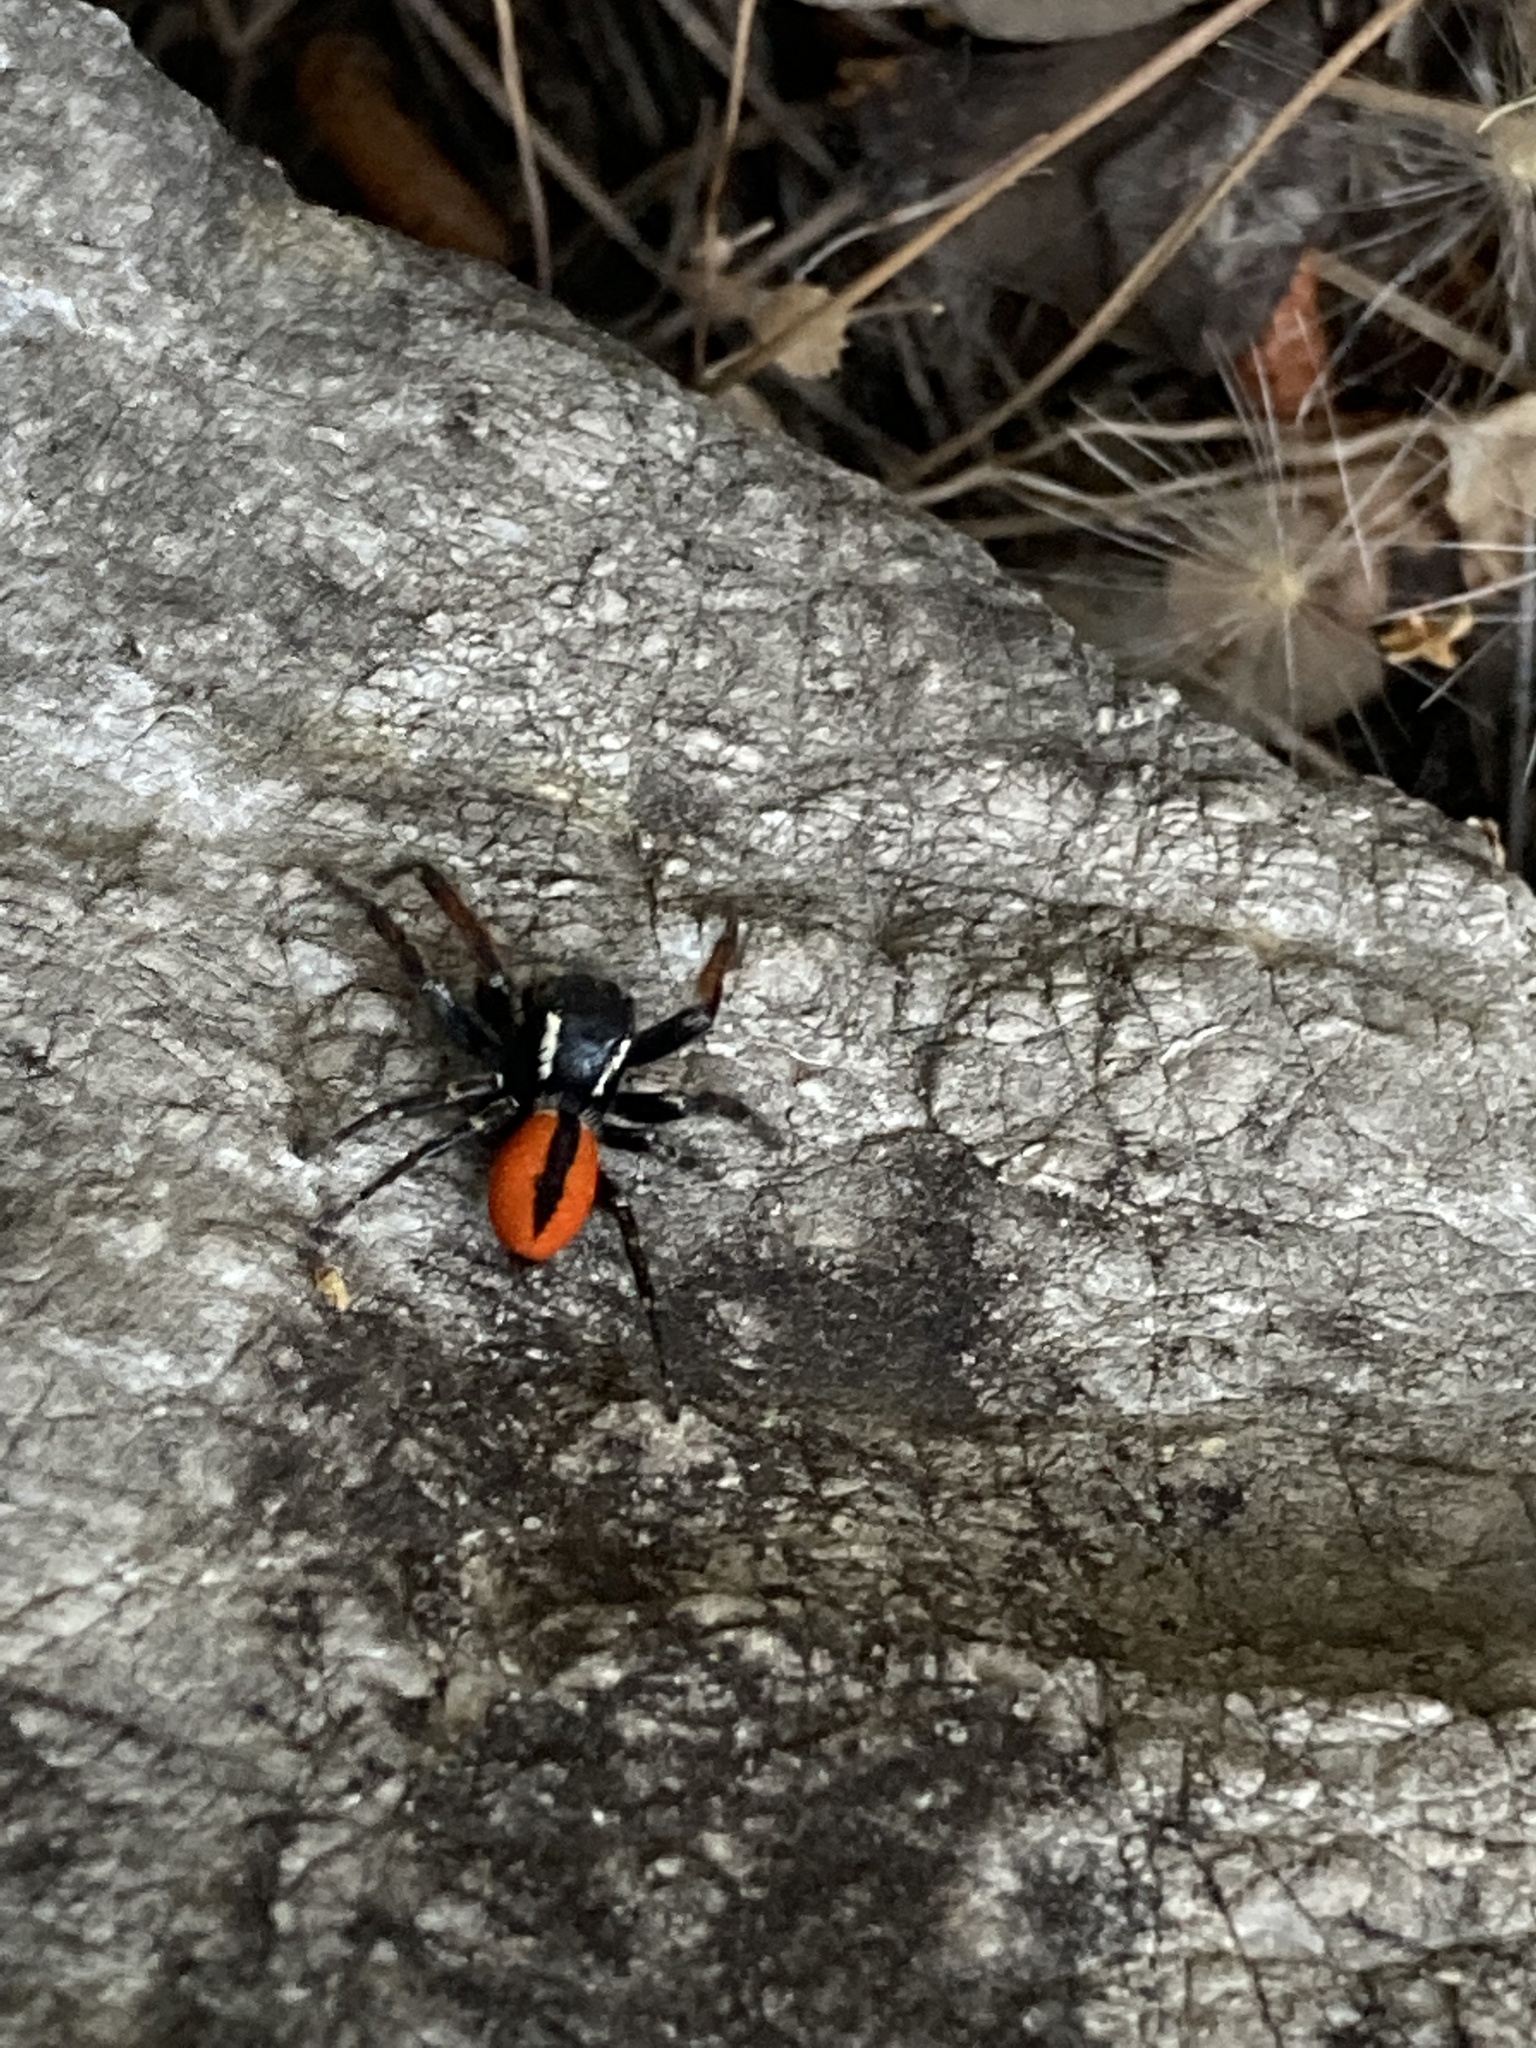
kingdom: Animalia
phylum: Arthropoda
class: Arachnida
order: Araneae
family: Salticidae
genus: Philaeus
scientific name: Philaeus chrysops
